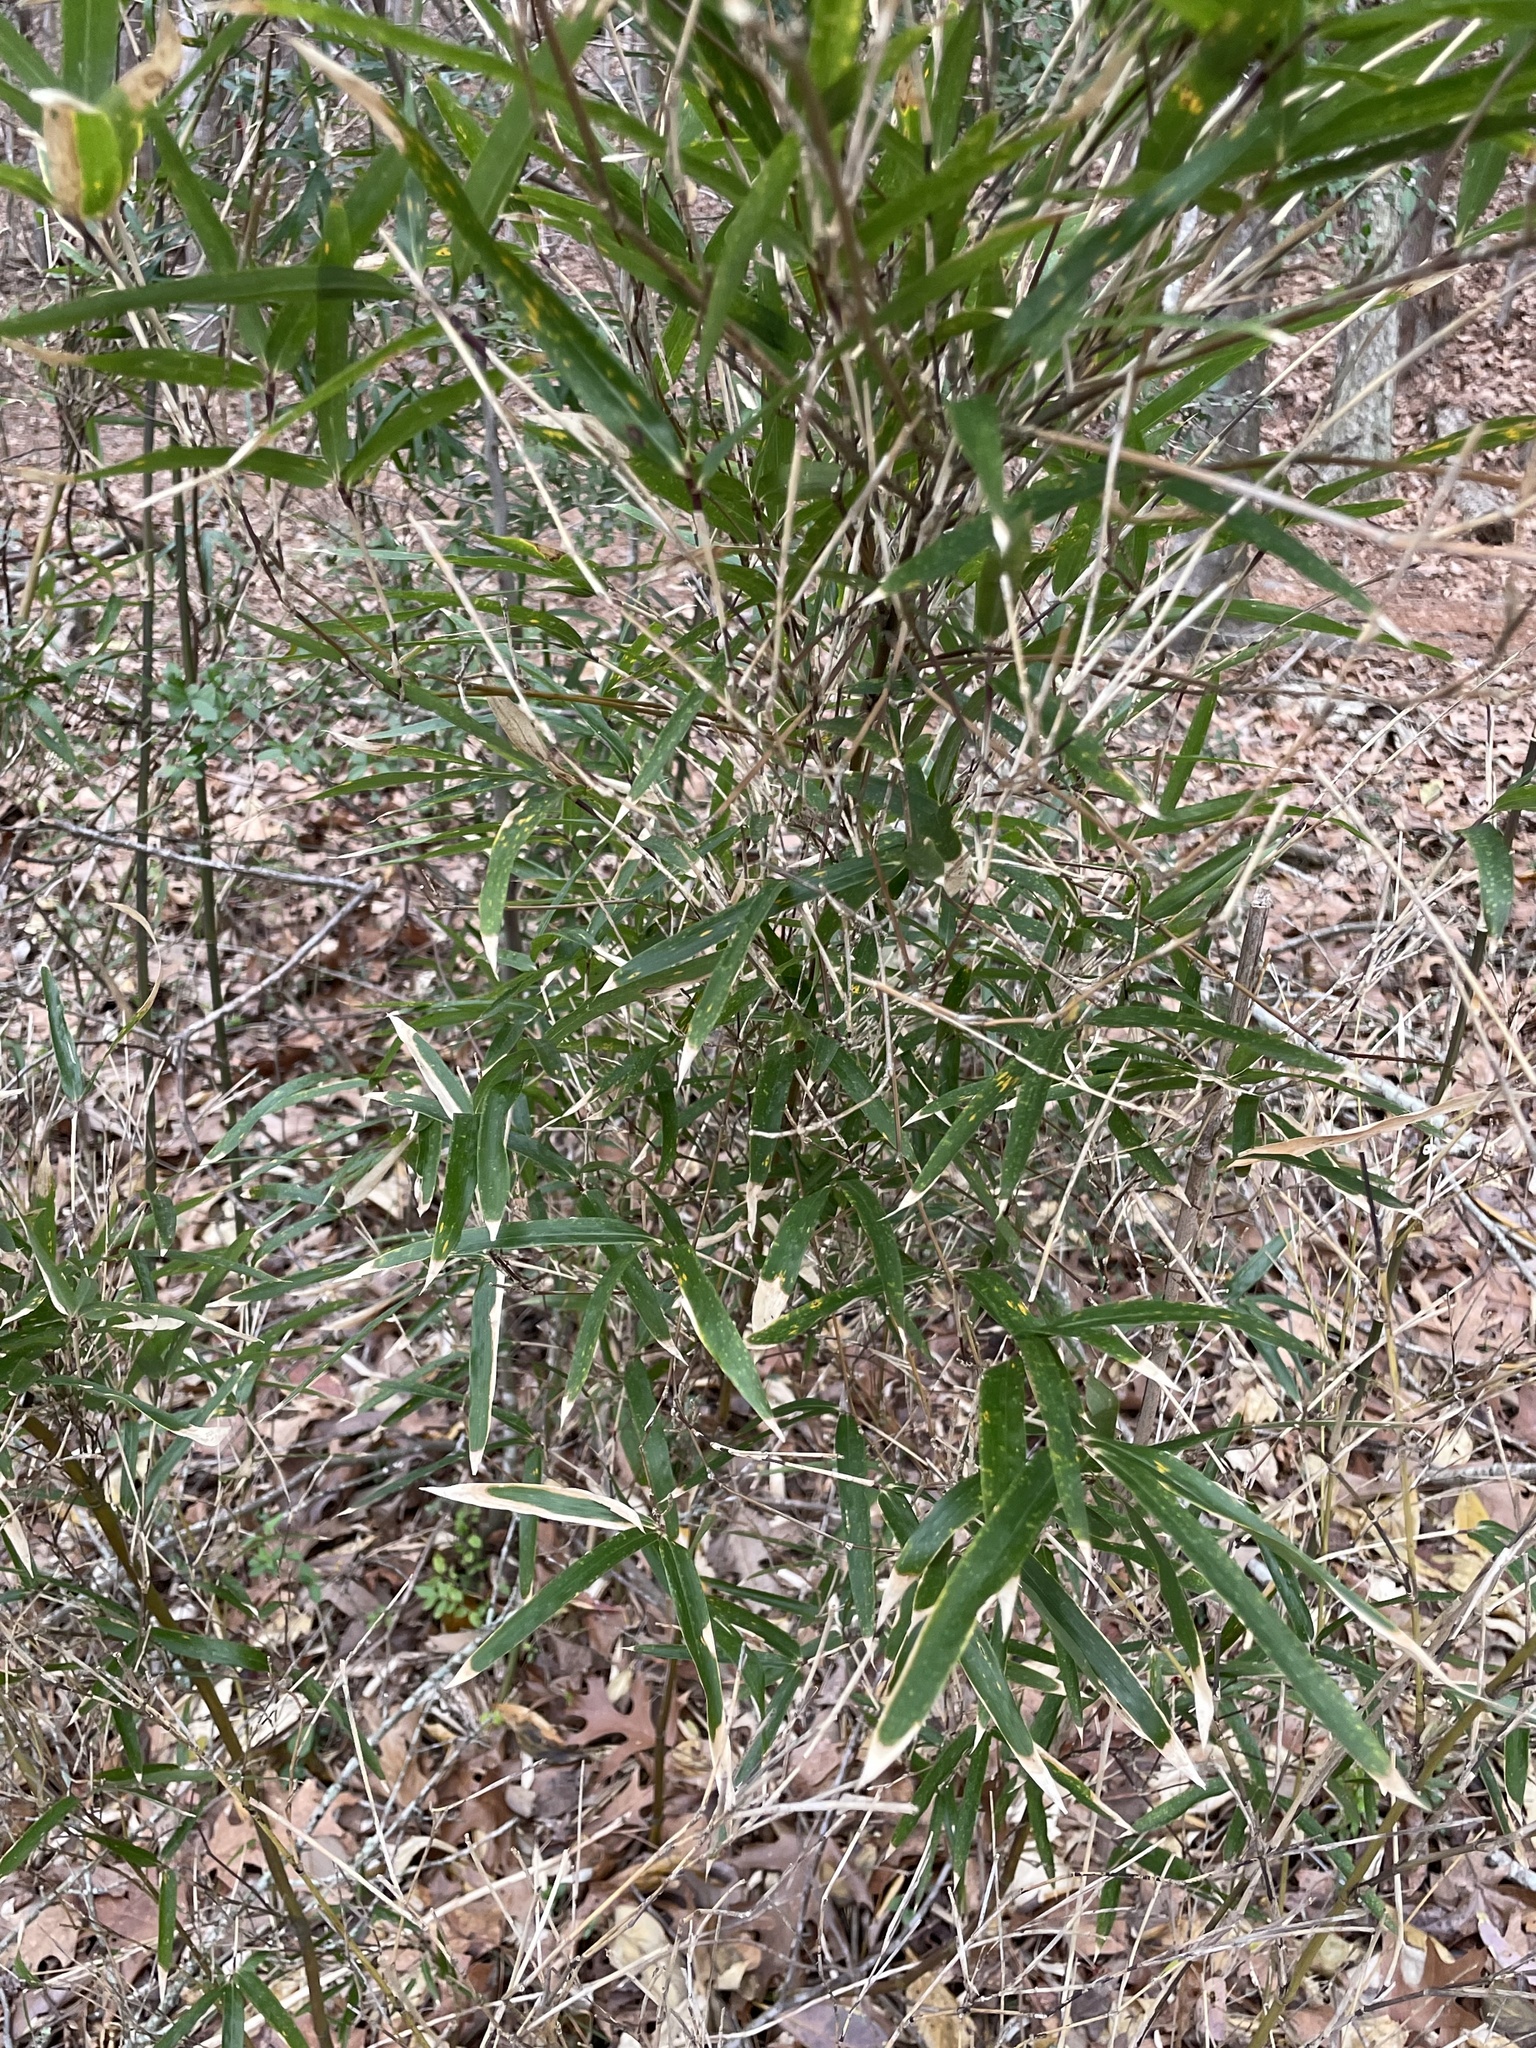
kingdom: Plantae
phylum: Tracheophyta
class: Liliopsida
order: Poales
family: Poaceae
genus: Arundinaria
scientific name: Arundinaria gigantea
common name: Giant cane
